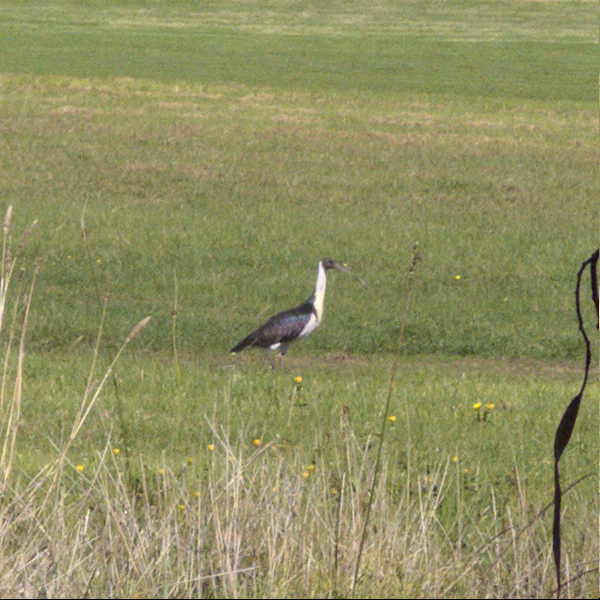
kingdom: Animalia
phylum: Chordata
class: Aves
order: Pelecaniformes
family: Threskiornithidae
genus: Threskiornis
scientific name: Threskiornis spinicollis
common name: Straw-necked ibis
